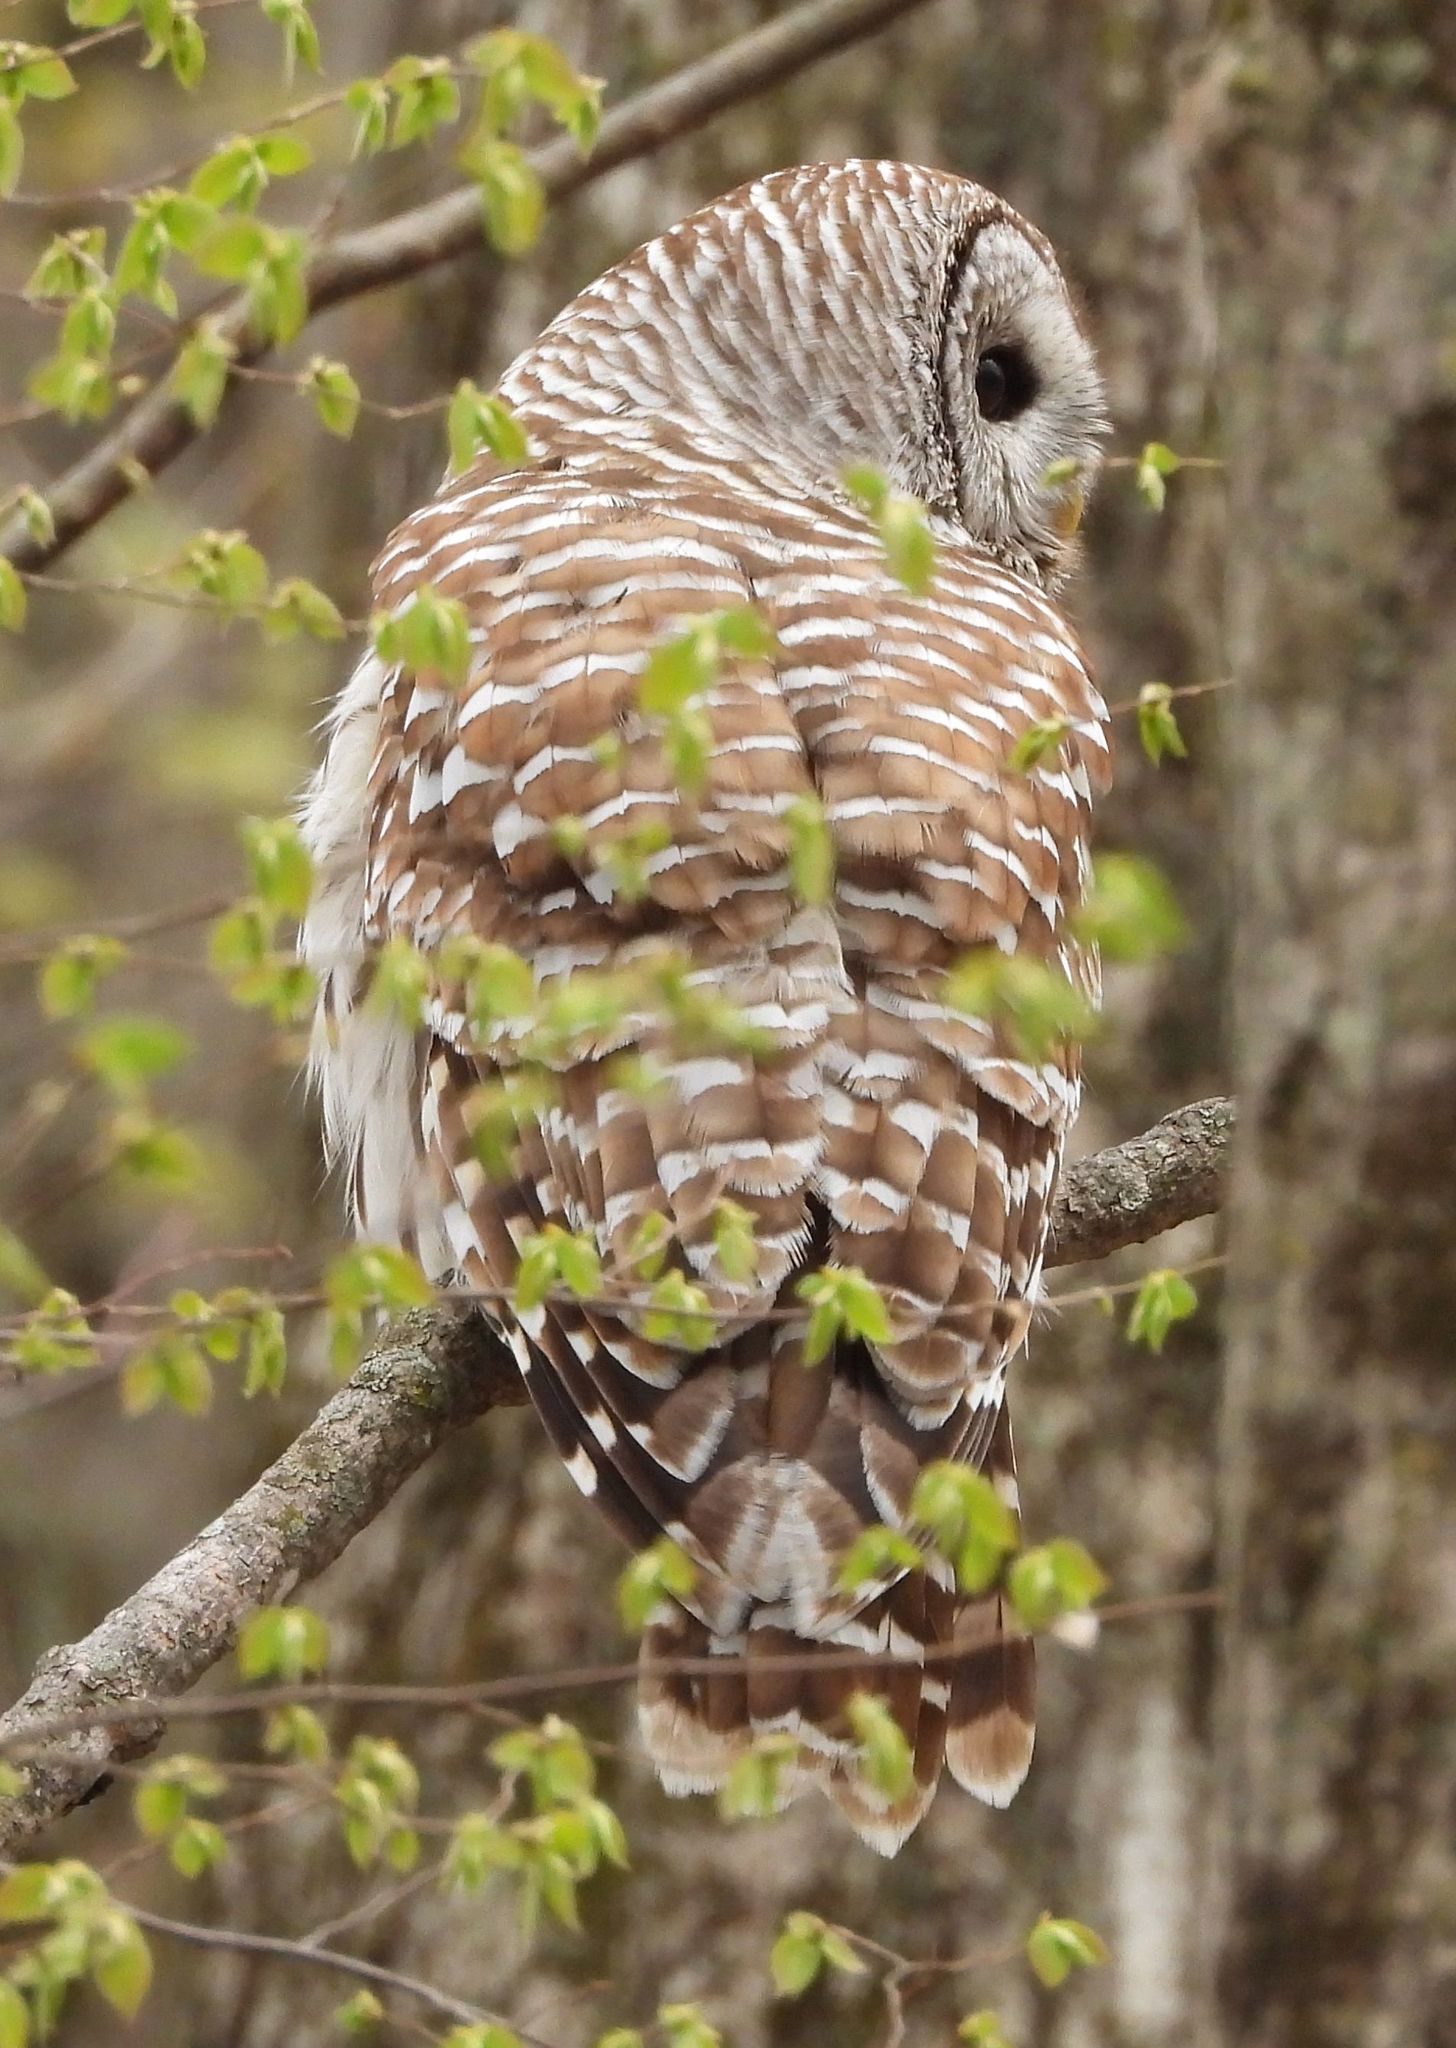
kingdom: Animalia
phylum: Chordata
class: Aves
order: Strigiformes
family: Strigidae
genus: Strix
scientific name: Strix varia
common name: Barred owl
